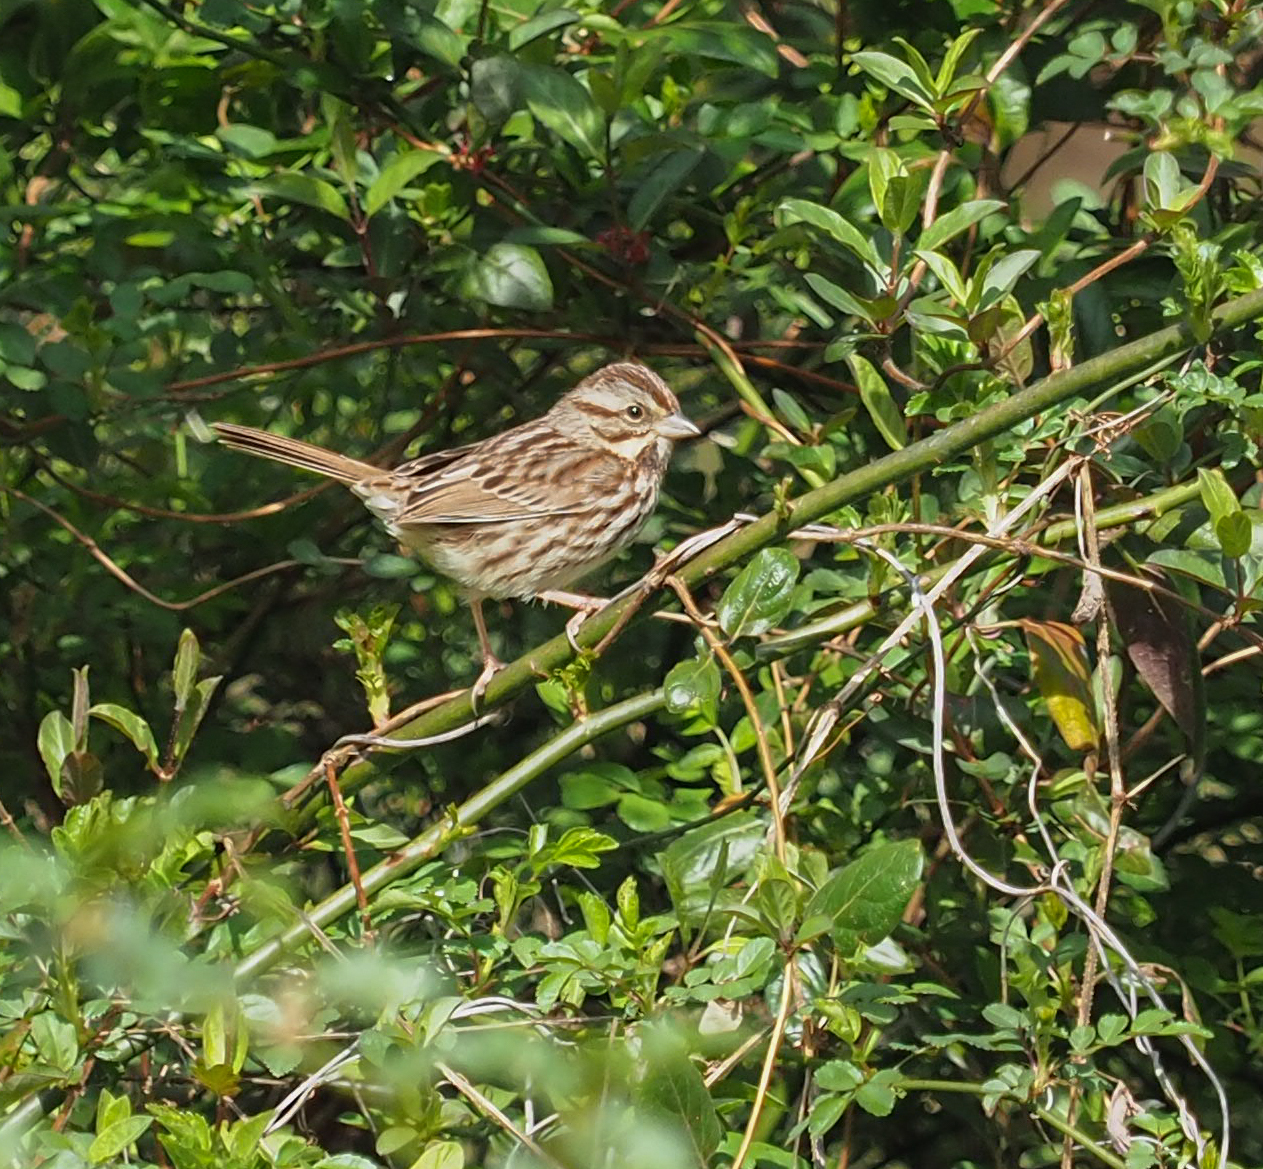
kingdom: Animalia
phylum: Chordata
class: Aves
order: Passeriformes
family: Passerellidae
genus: Melospiza
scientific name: Melospiza melodia
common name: Song sparrow
